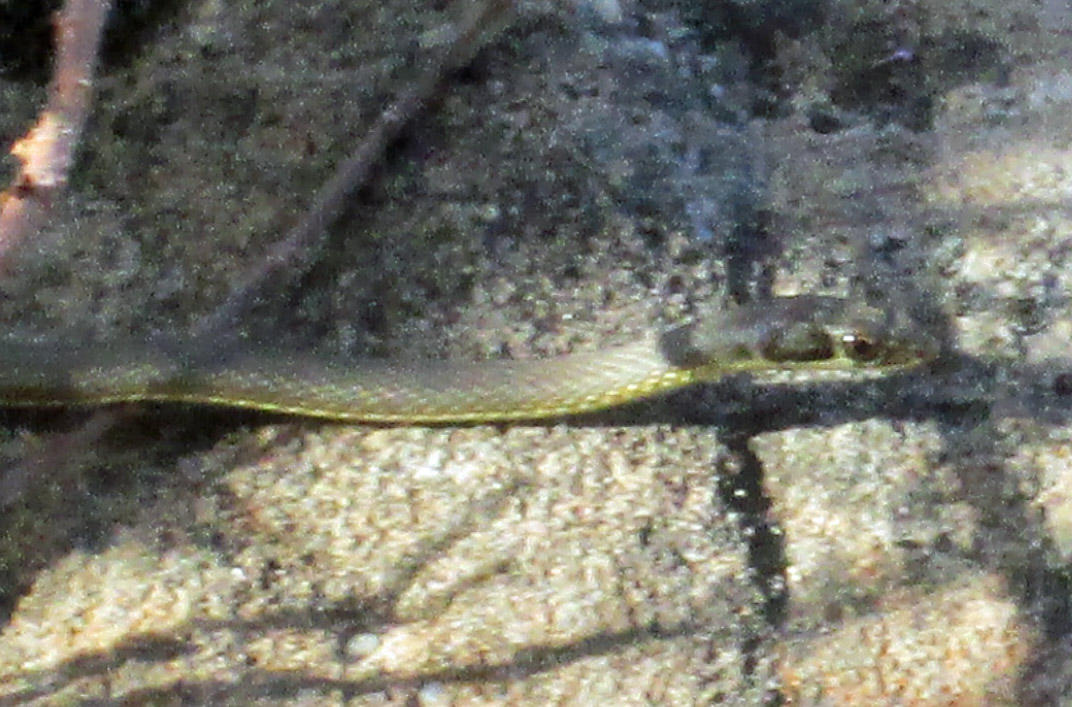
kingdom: Animalia
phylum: Chordata
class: Squamata
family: Psammophiidae
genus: Psammophis
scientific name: Psammophis notostictus
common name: Karoo sand snake
